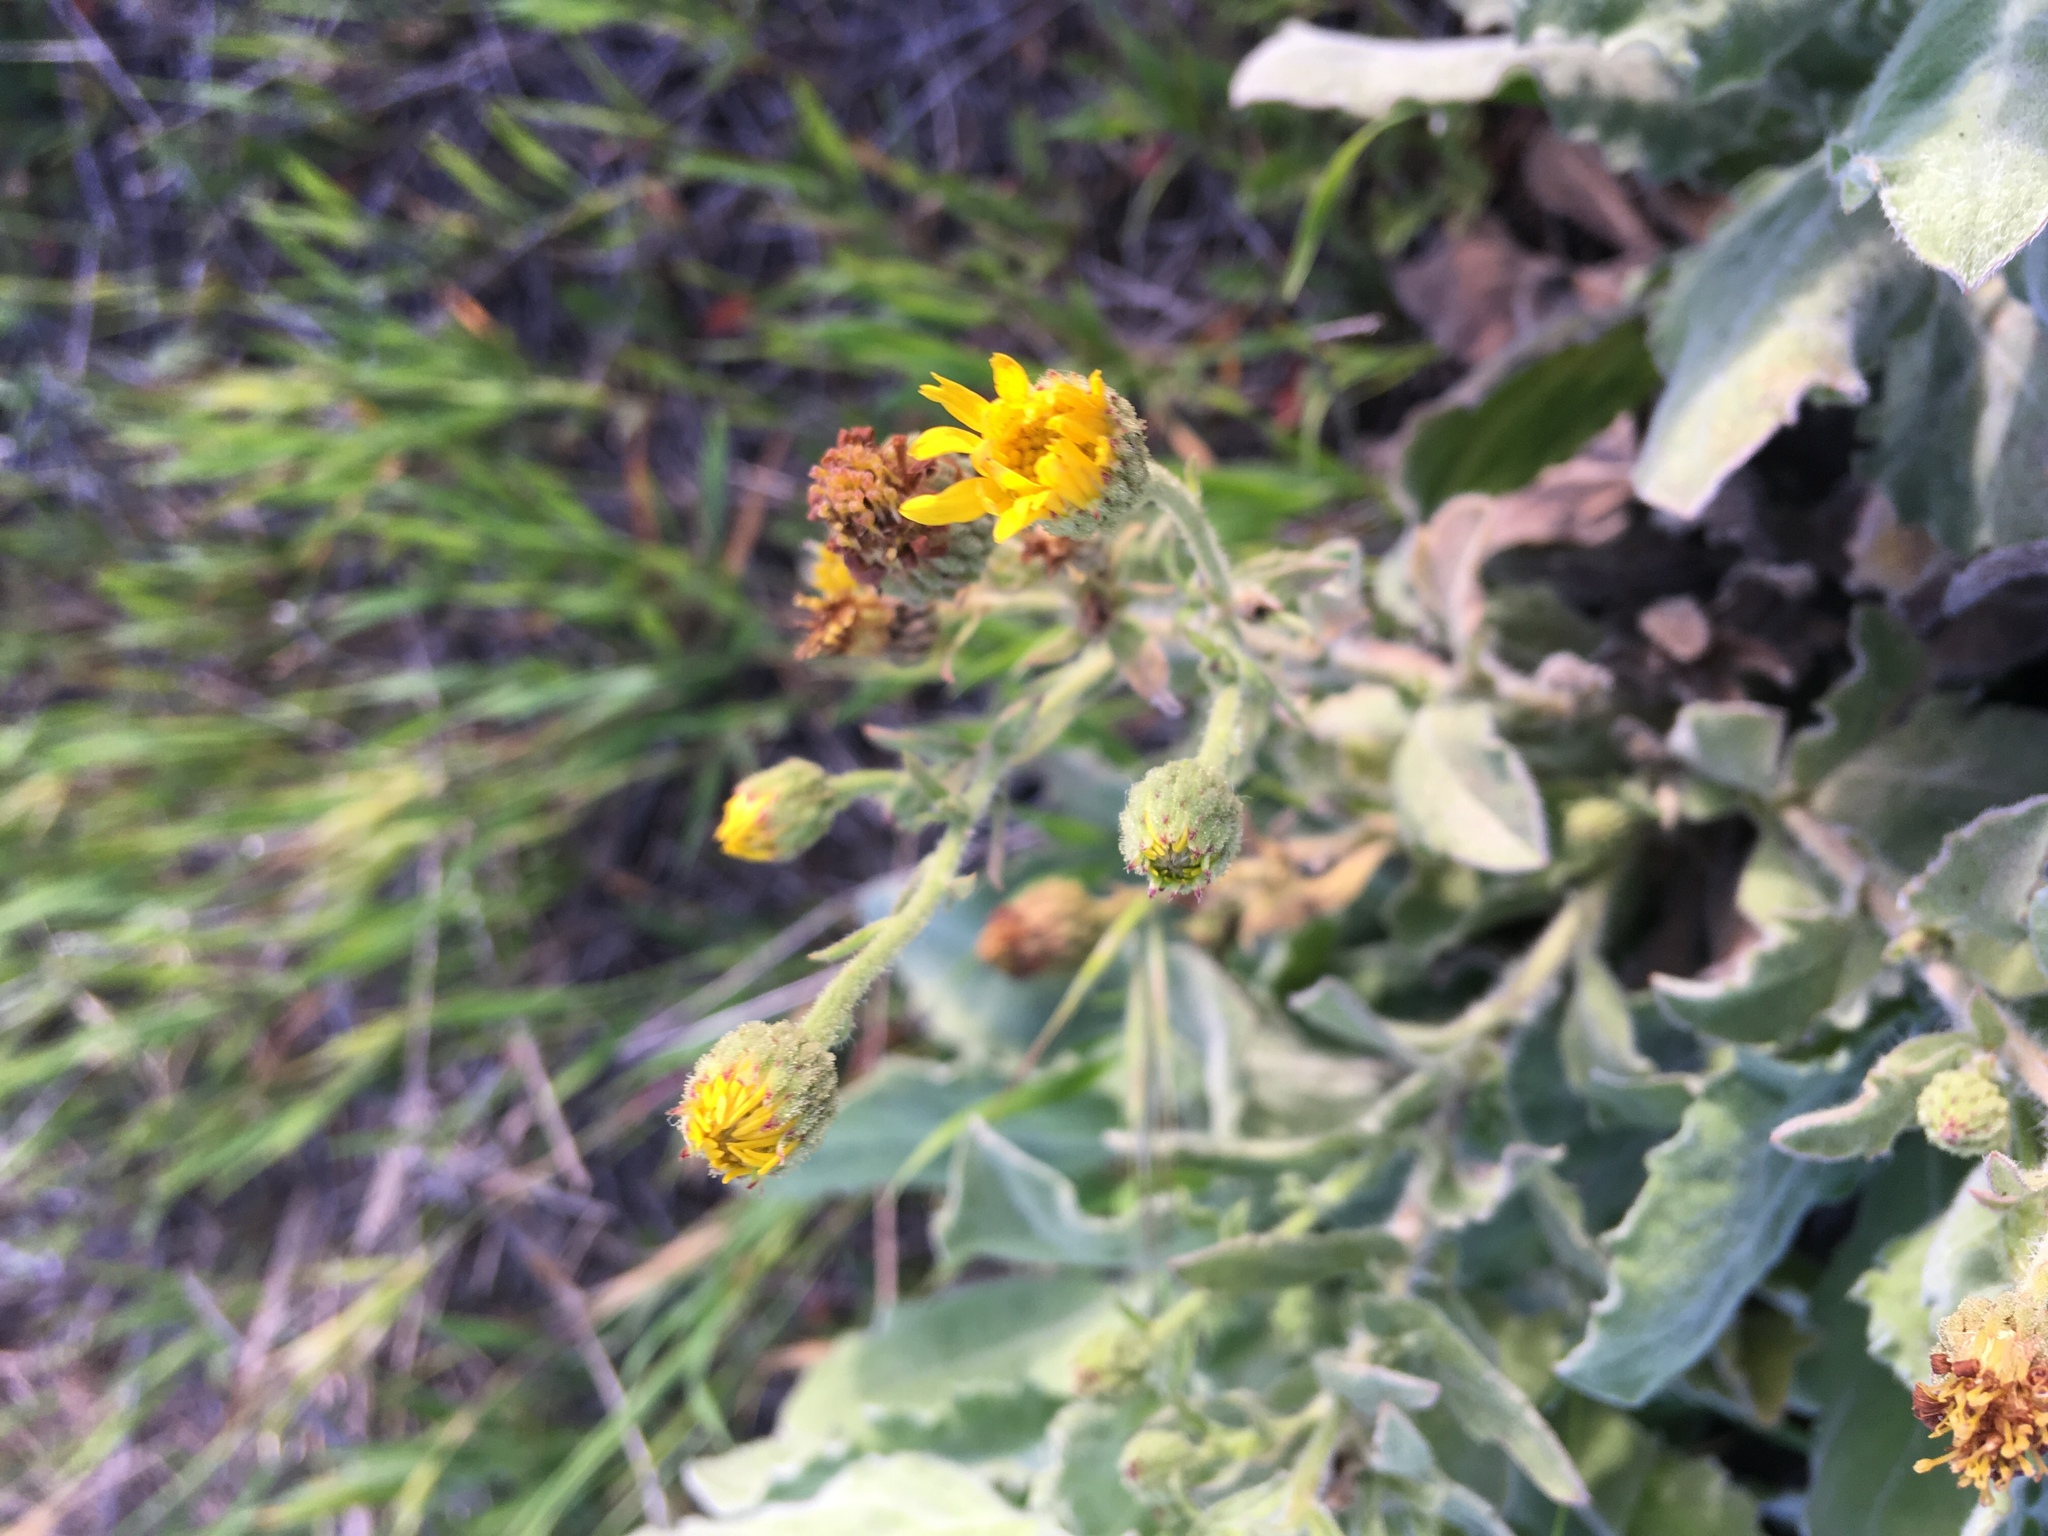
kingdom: Plantae
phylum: Tracheophyta
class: Magnoliopsida
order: Asterales
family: Asteraceae
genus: Heterotheca
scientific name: Heterotheca grandiflora
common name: Telegraphweed
